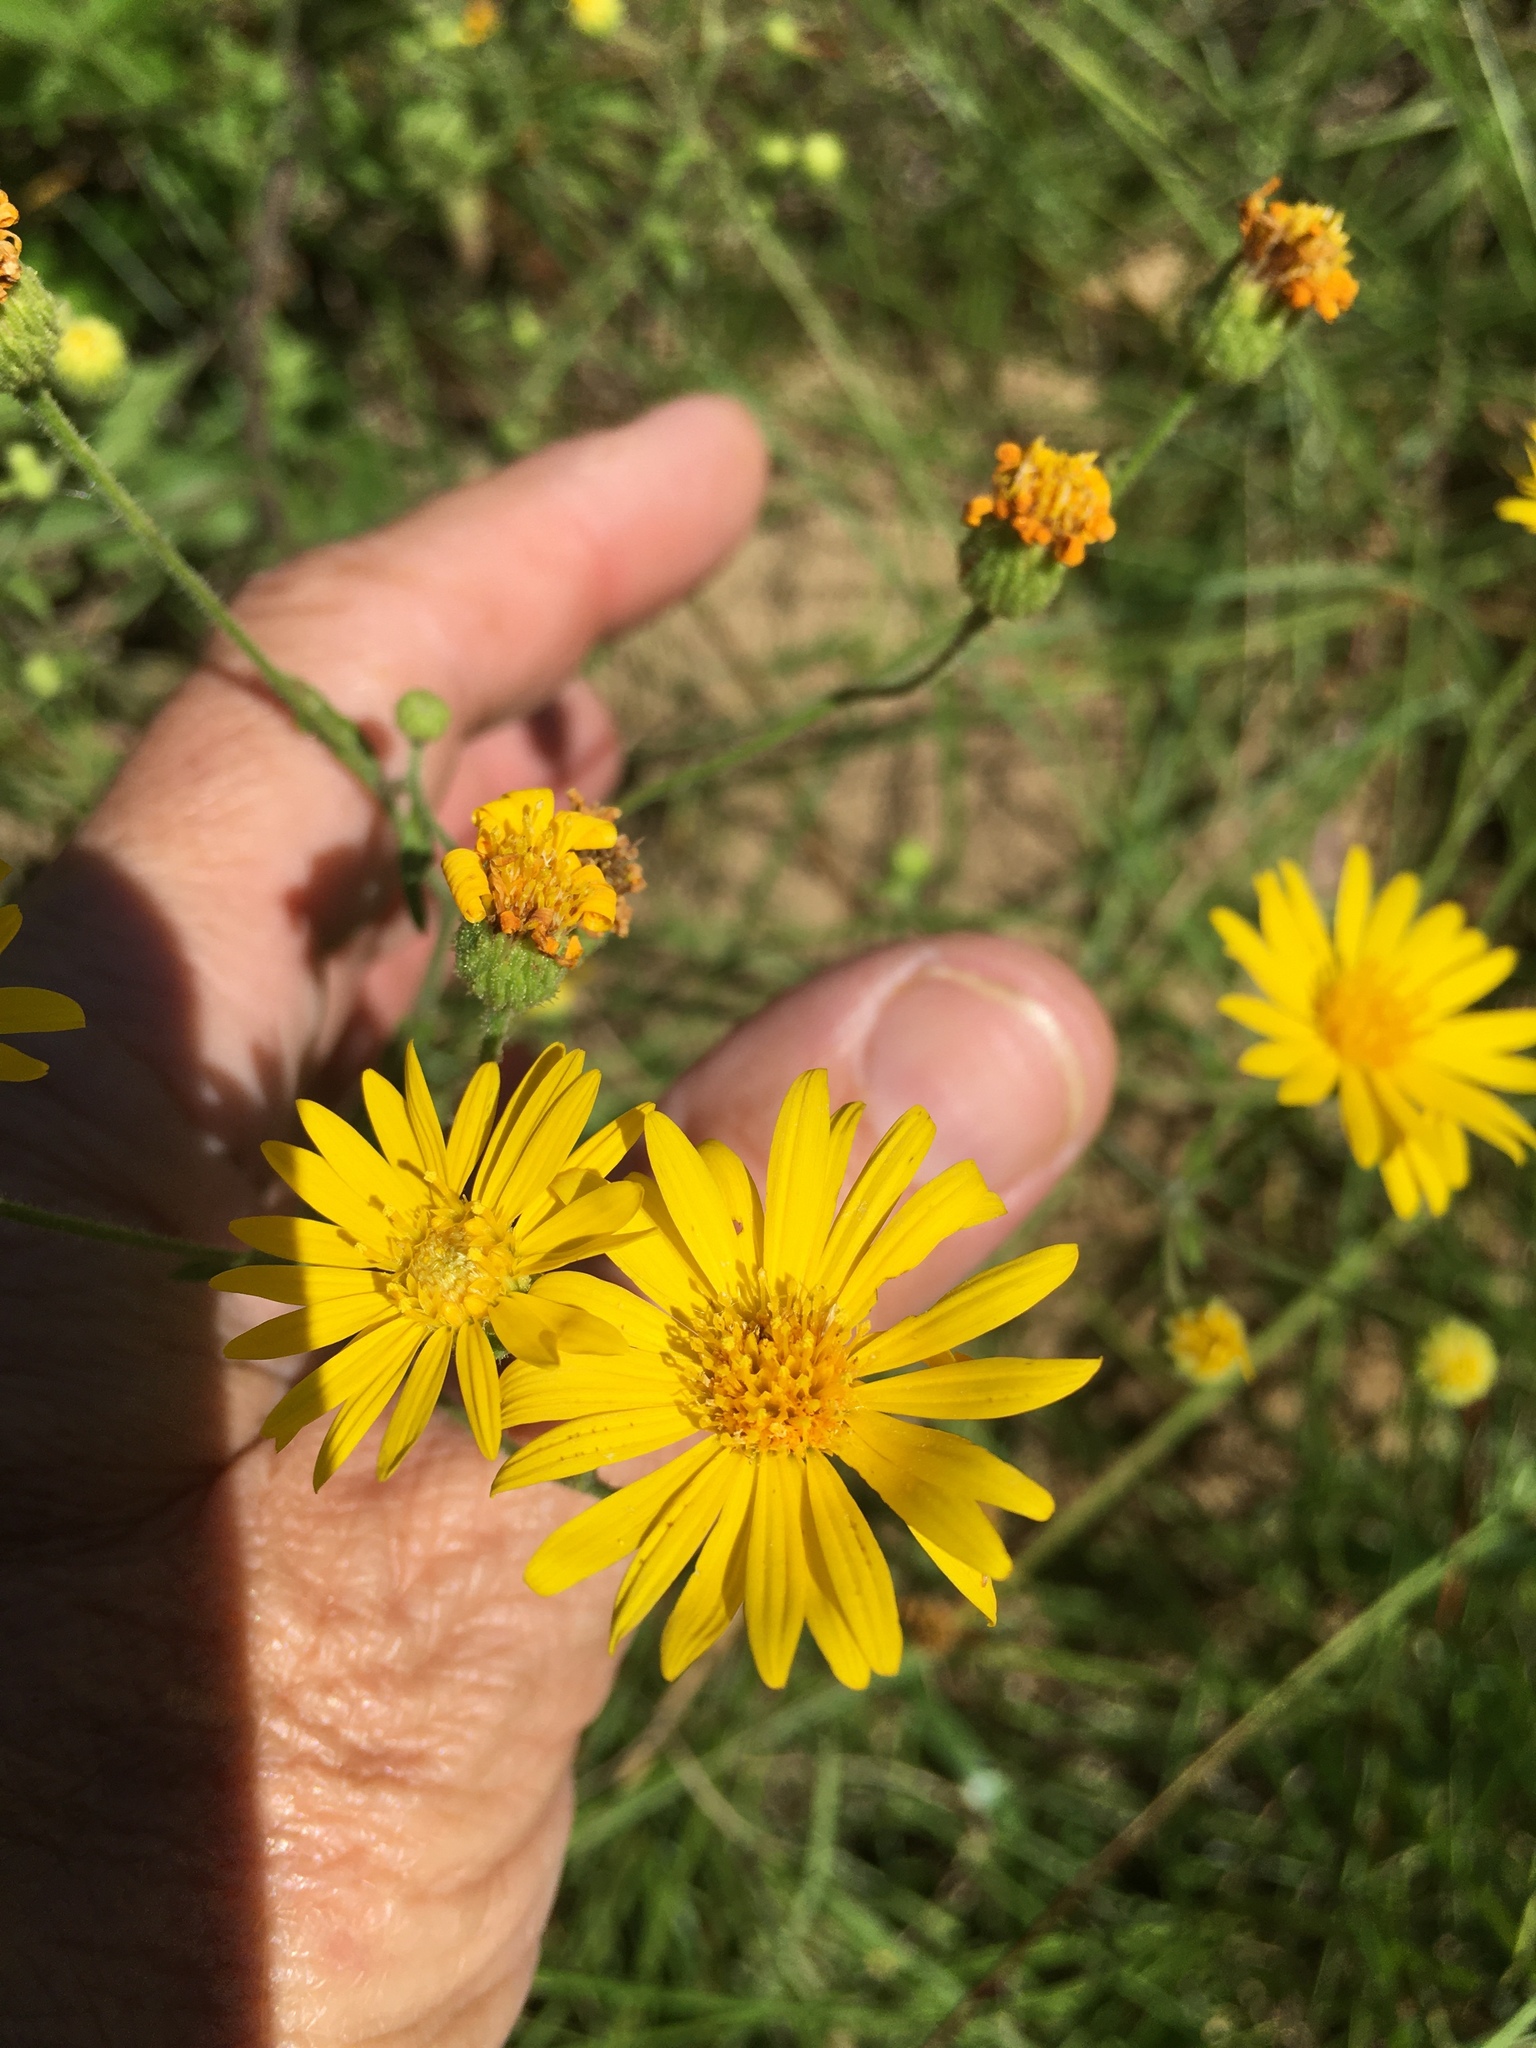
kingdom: Plantae
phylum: Tracheophyta
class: Magnoliopsida
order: Asterales
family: Asteraceae
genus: Heterotheca
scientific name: Heterotheca subaxillaris
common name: Camphorweed
